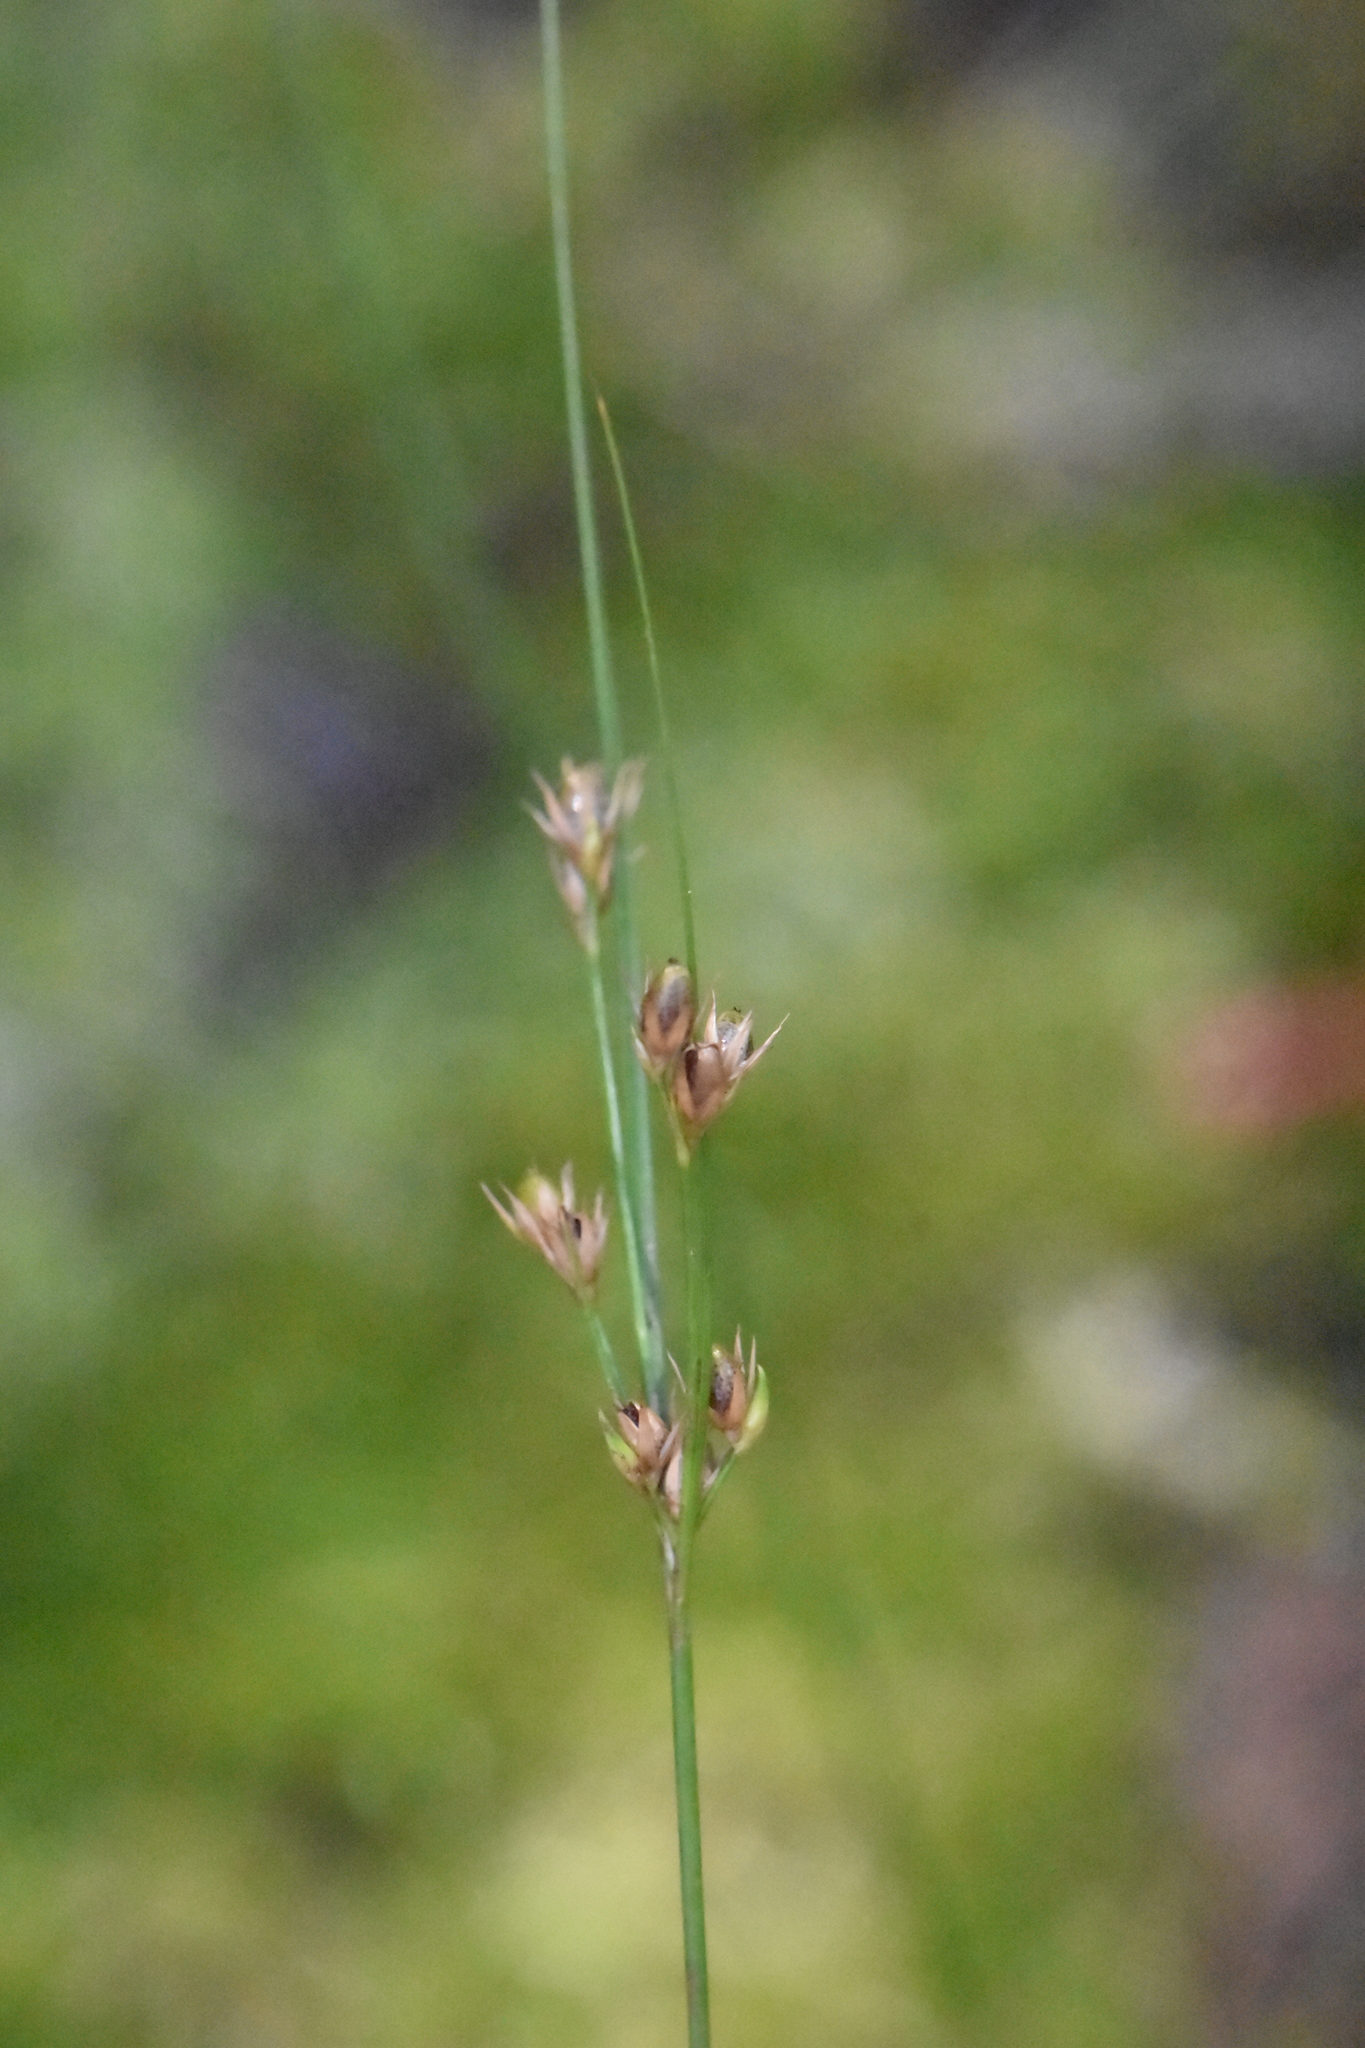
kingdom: Plantae
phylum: Tracheophyta
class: Liliopsida
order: Poales
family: Juncaceae
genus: Juncus
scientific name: Juncus tenuis
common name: Slender rush
